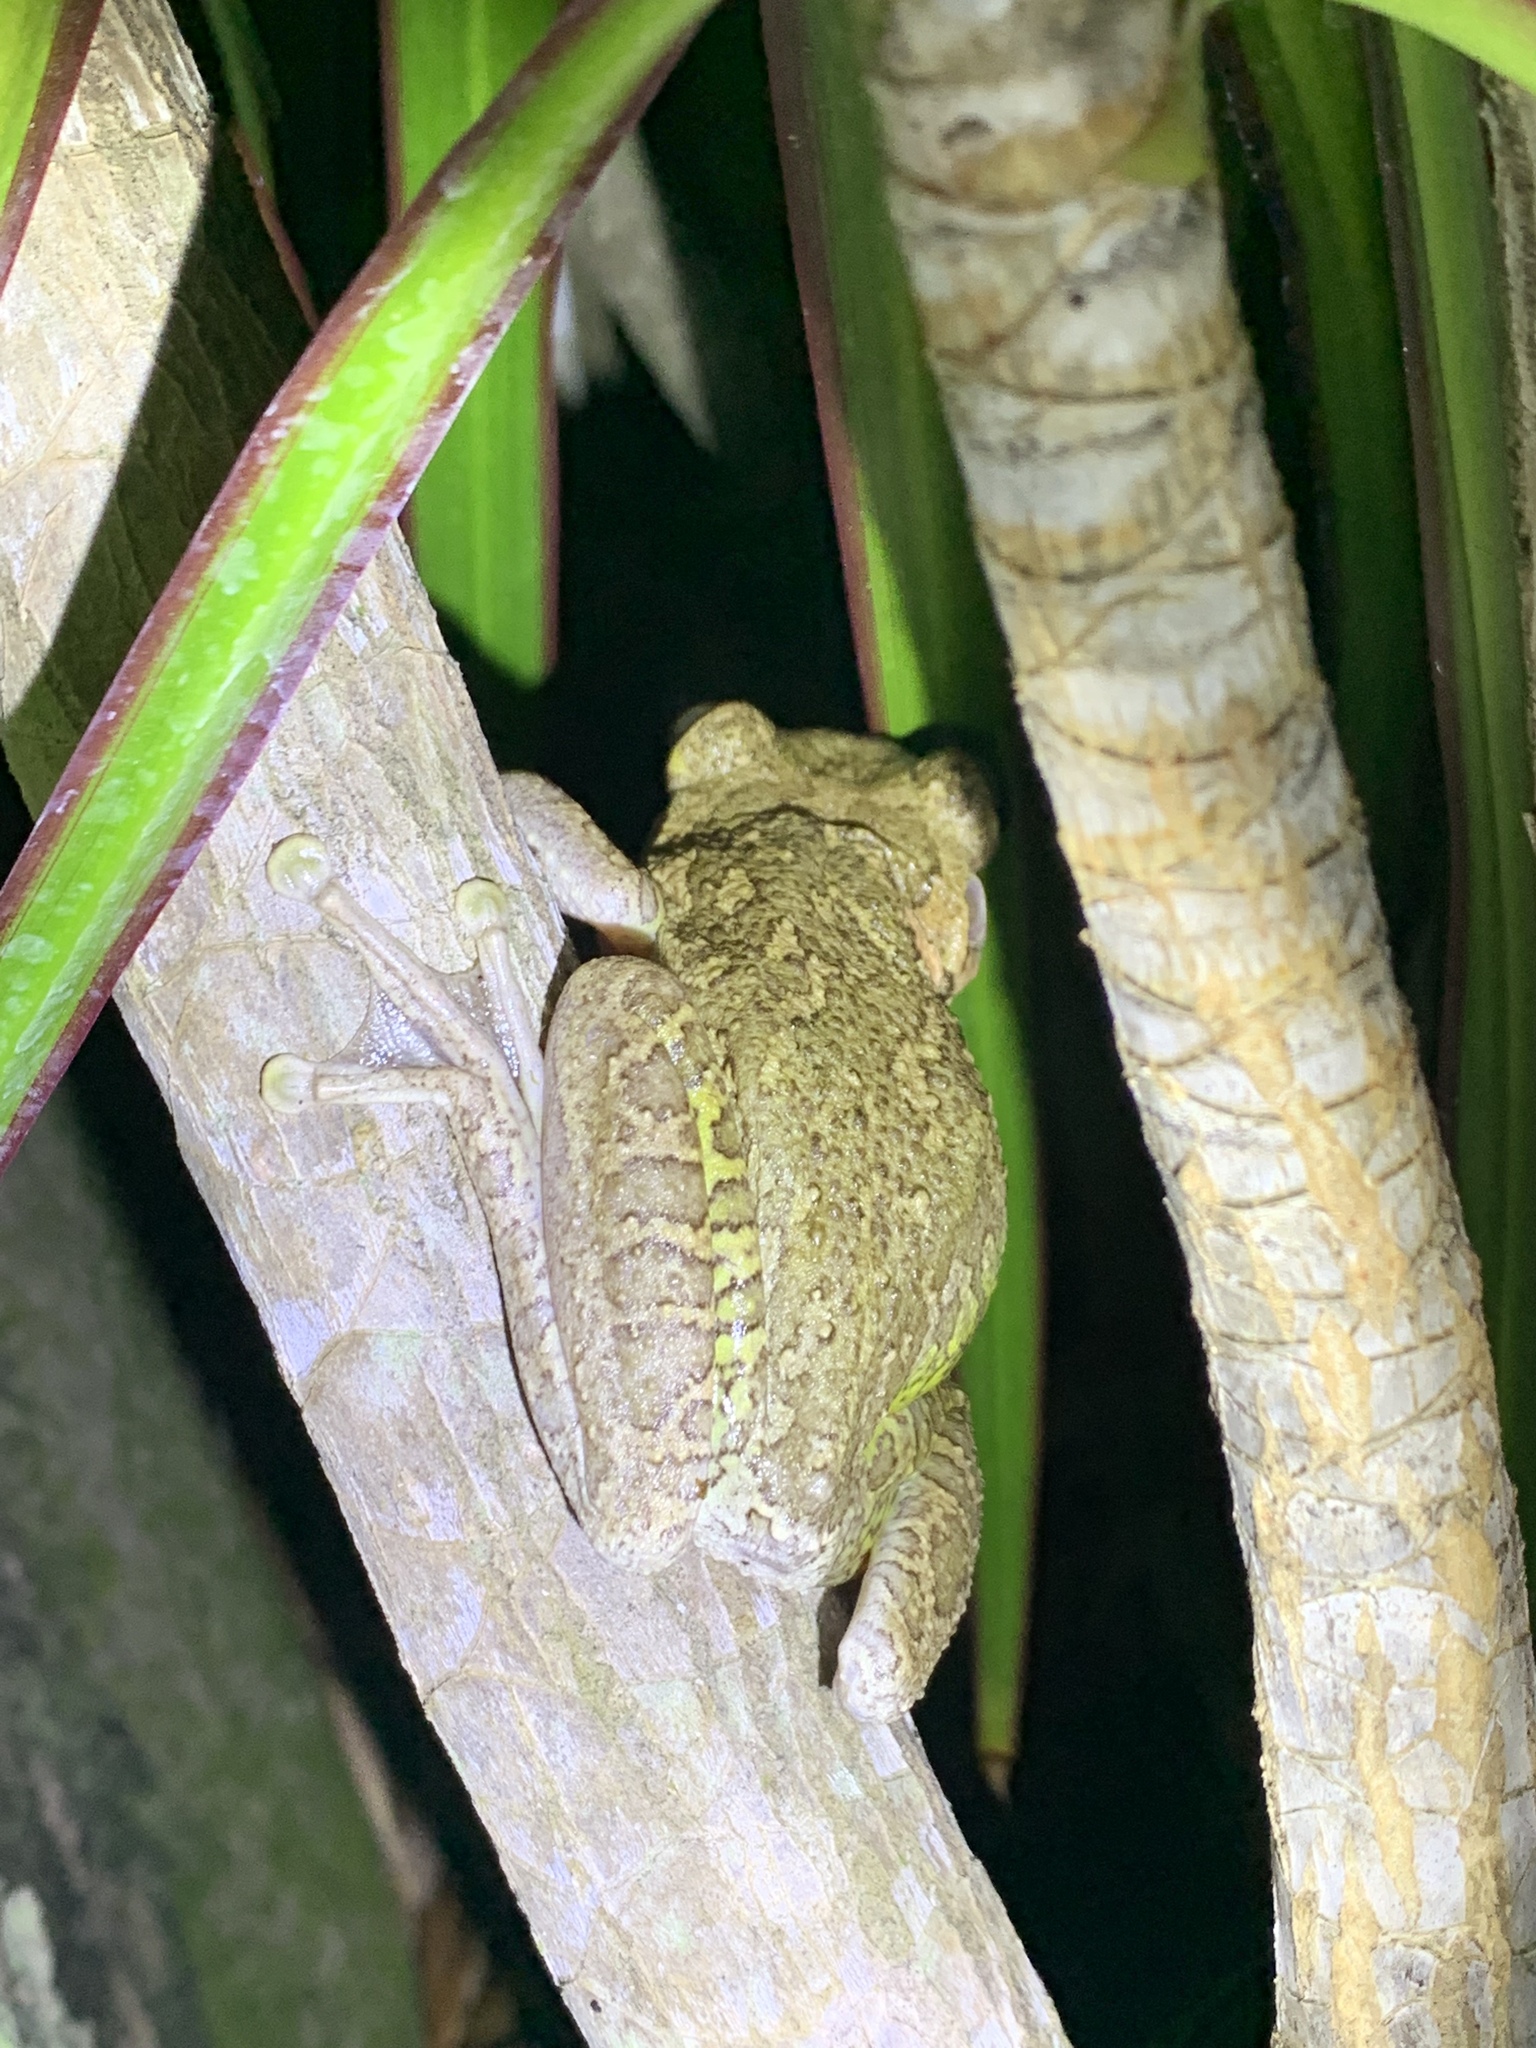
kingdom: Animalia
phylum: Chordata
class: Amphibia
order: Anura
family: Hylidae
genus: Osteopilus
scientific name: Osteopilus septentrionalis
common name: Cuban treefrog
